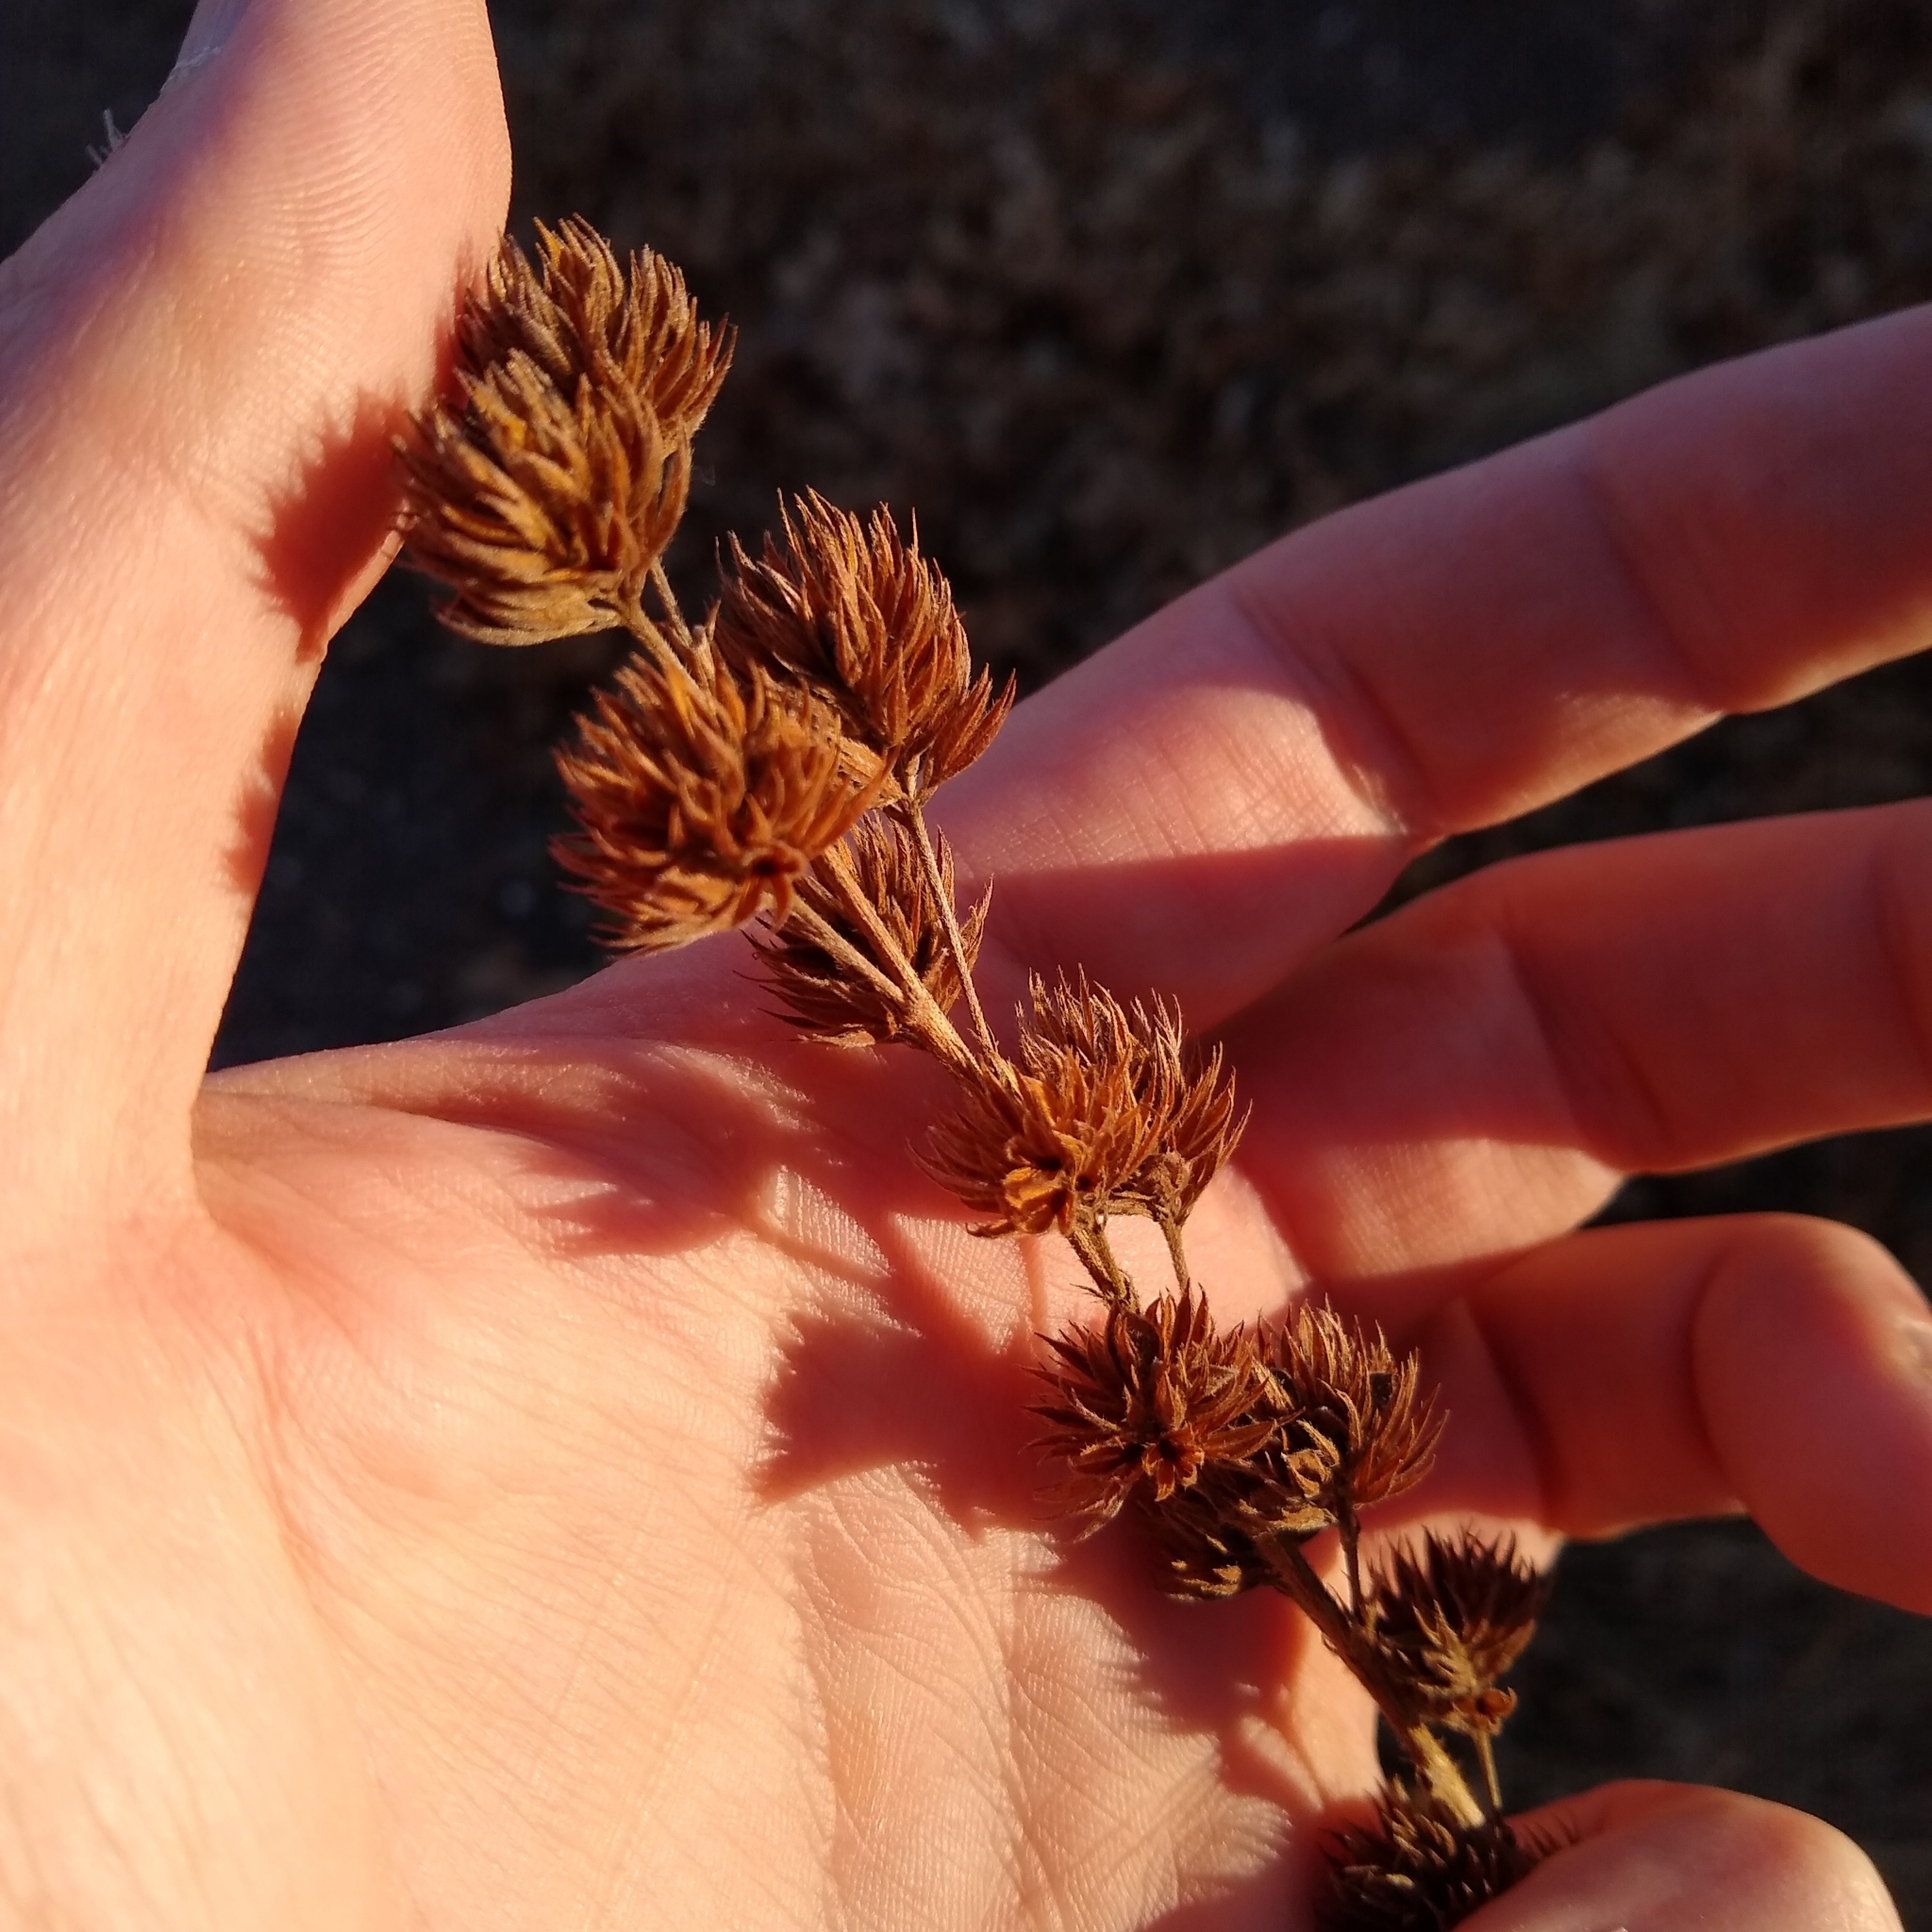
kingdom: Plantae
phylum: Tracheophyta
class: Magnoliopsida
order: Fabales
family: Fabaceae
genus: Lespedeza
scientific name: Lespedeza capitata
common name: Dusty clover
